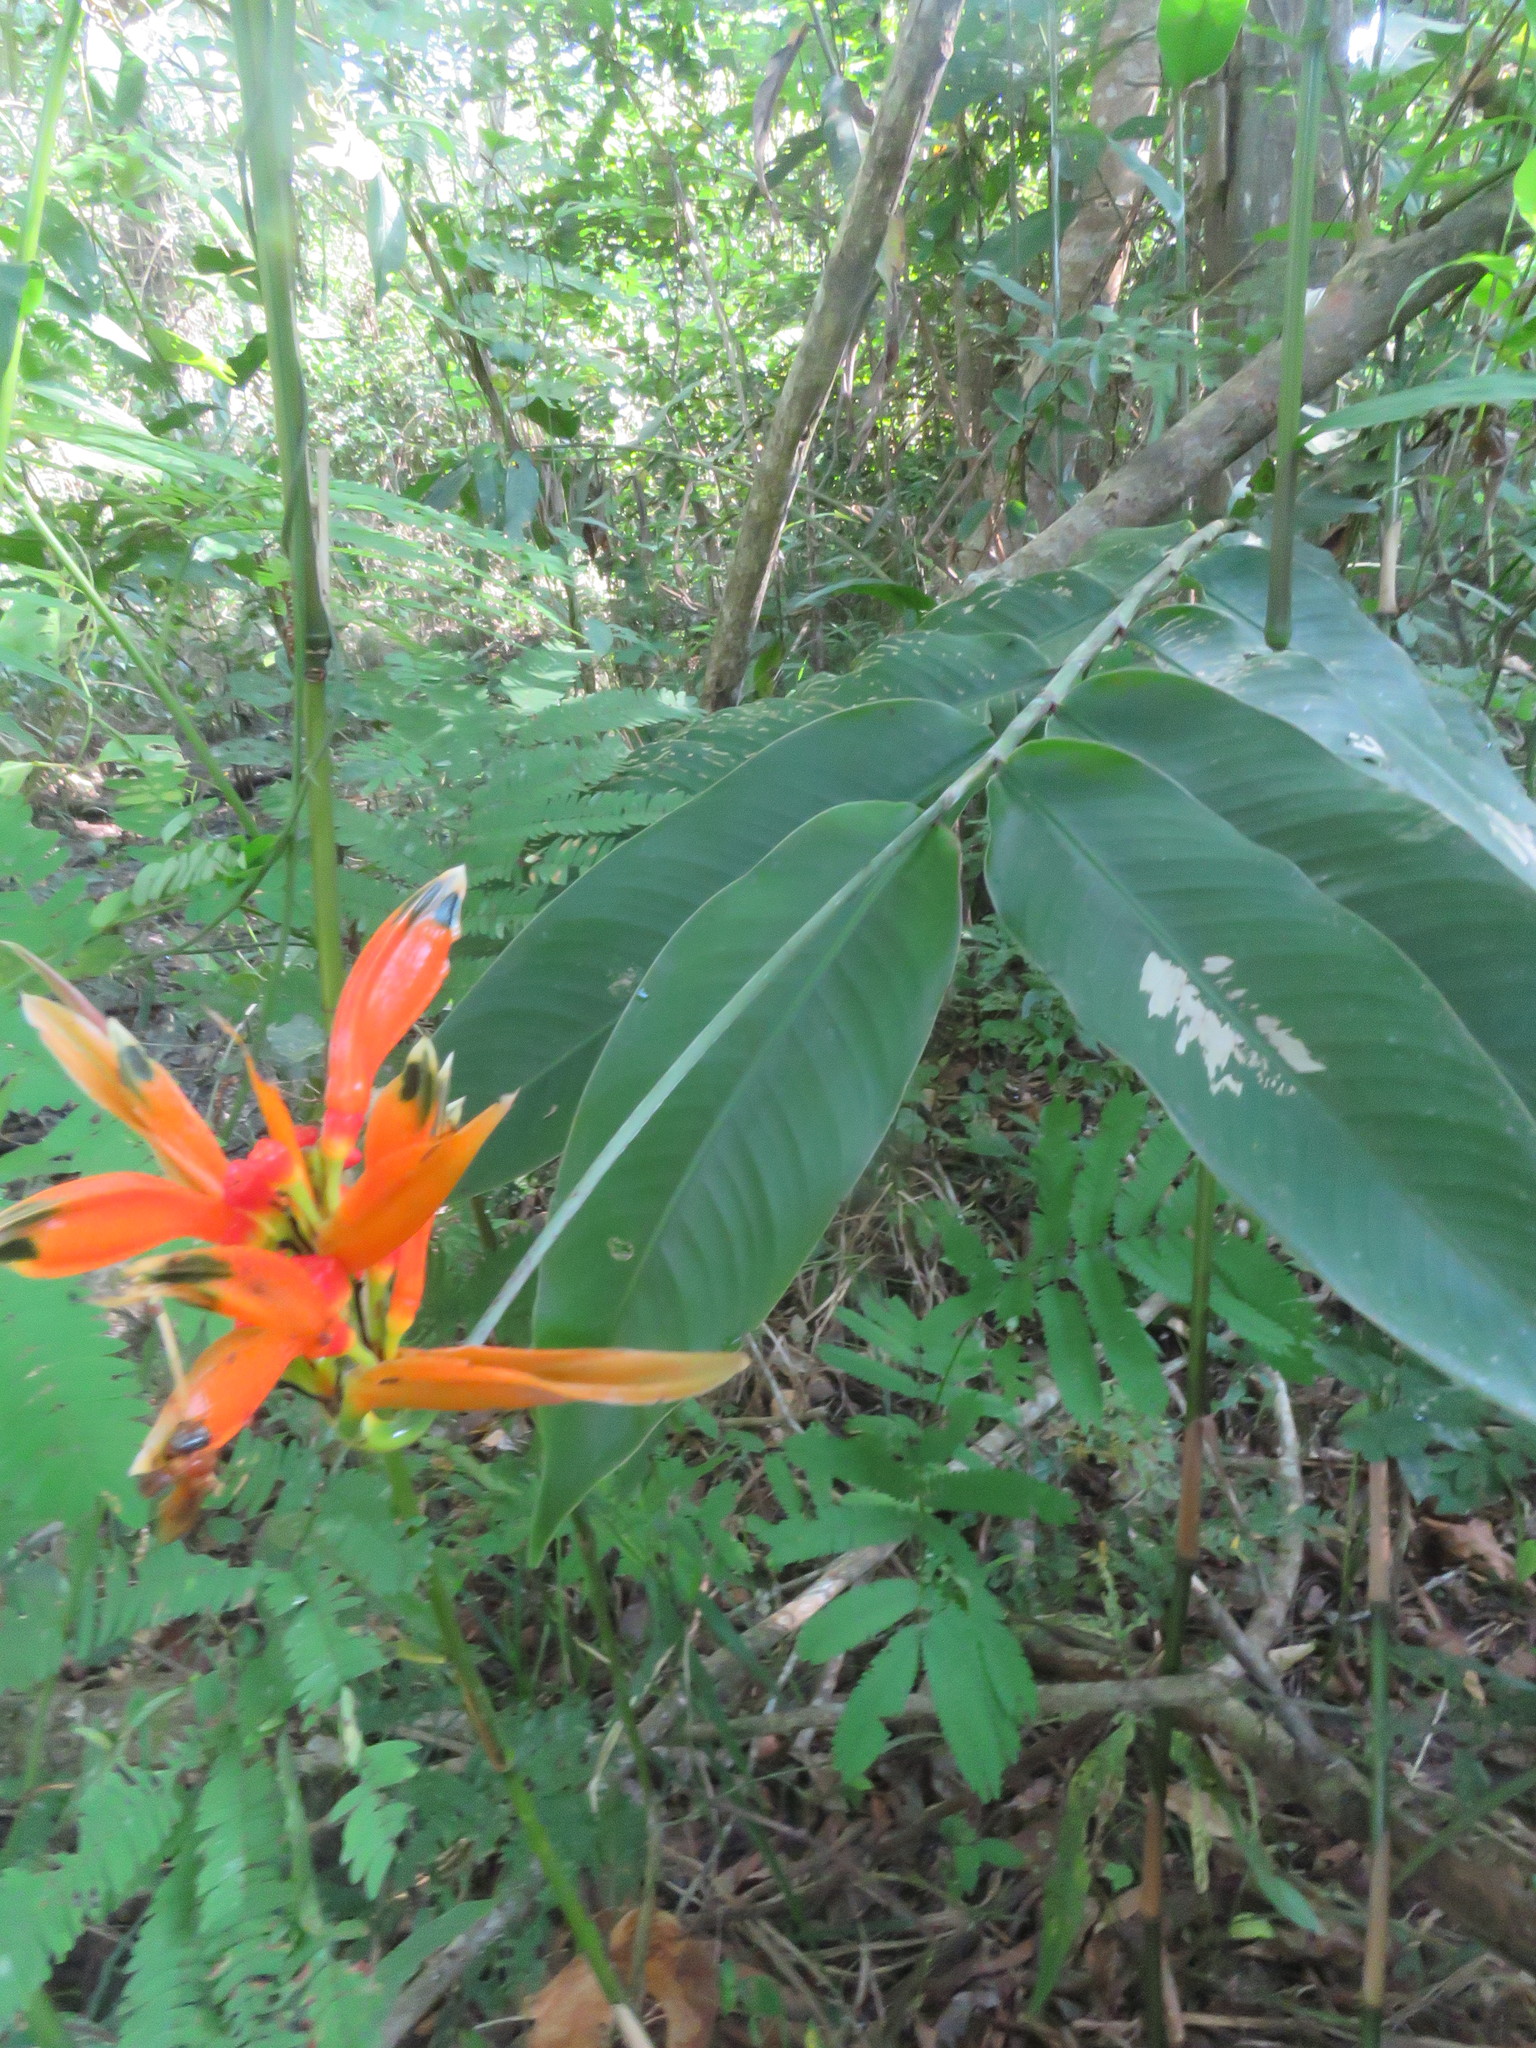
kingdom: Plantae
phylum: Tracheophyta
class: Liliopsida
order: Zingiberales
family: Heliconiaceae
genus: Heliconia
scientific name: Heliconia psittacorum
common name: Parrot's-flower
